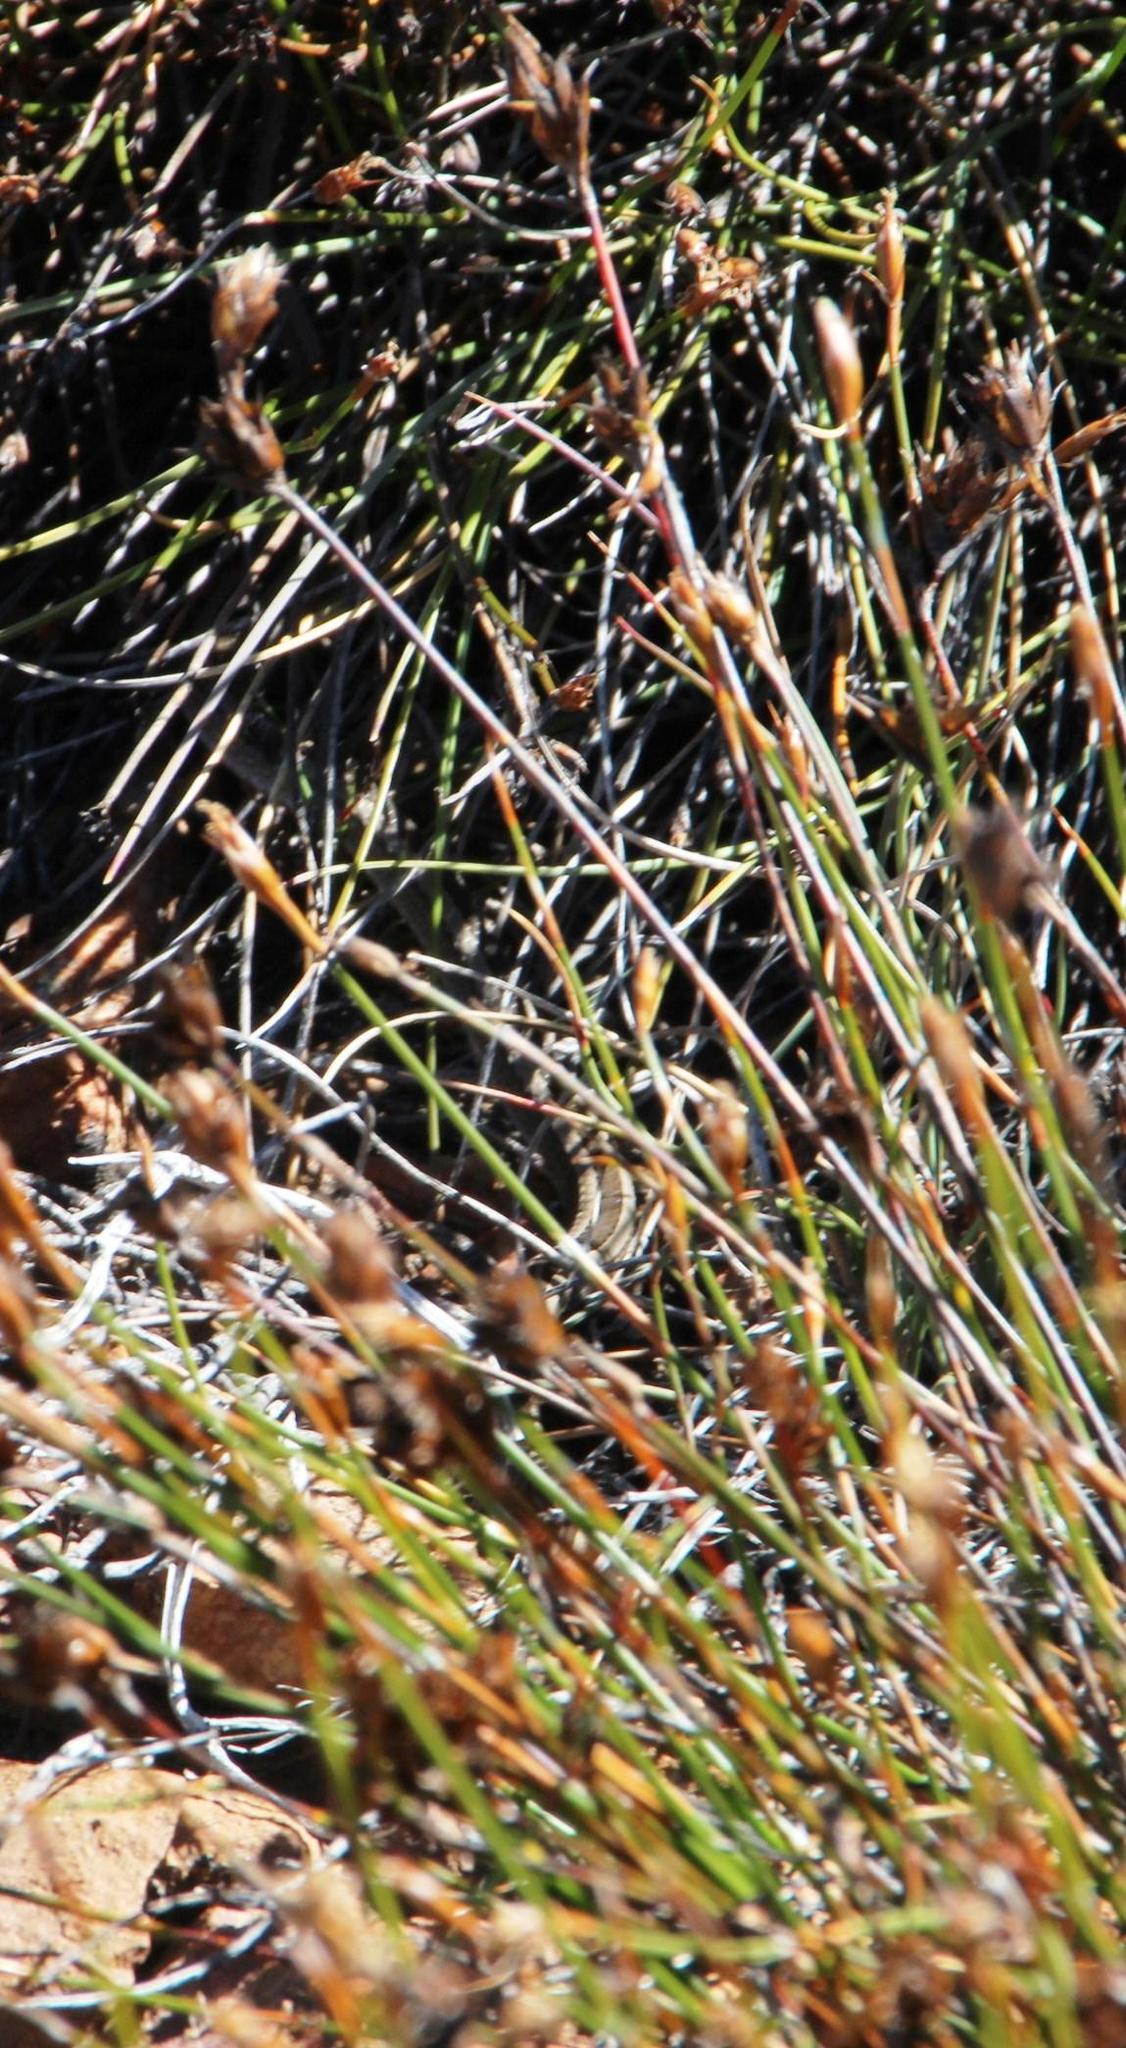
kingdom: Animalia
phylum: Chordata
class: Squamata
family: Psammophiidae
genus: Psammophis
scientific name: Psammophis crucifer
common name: Cross-marked grass snake
